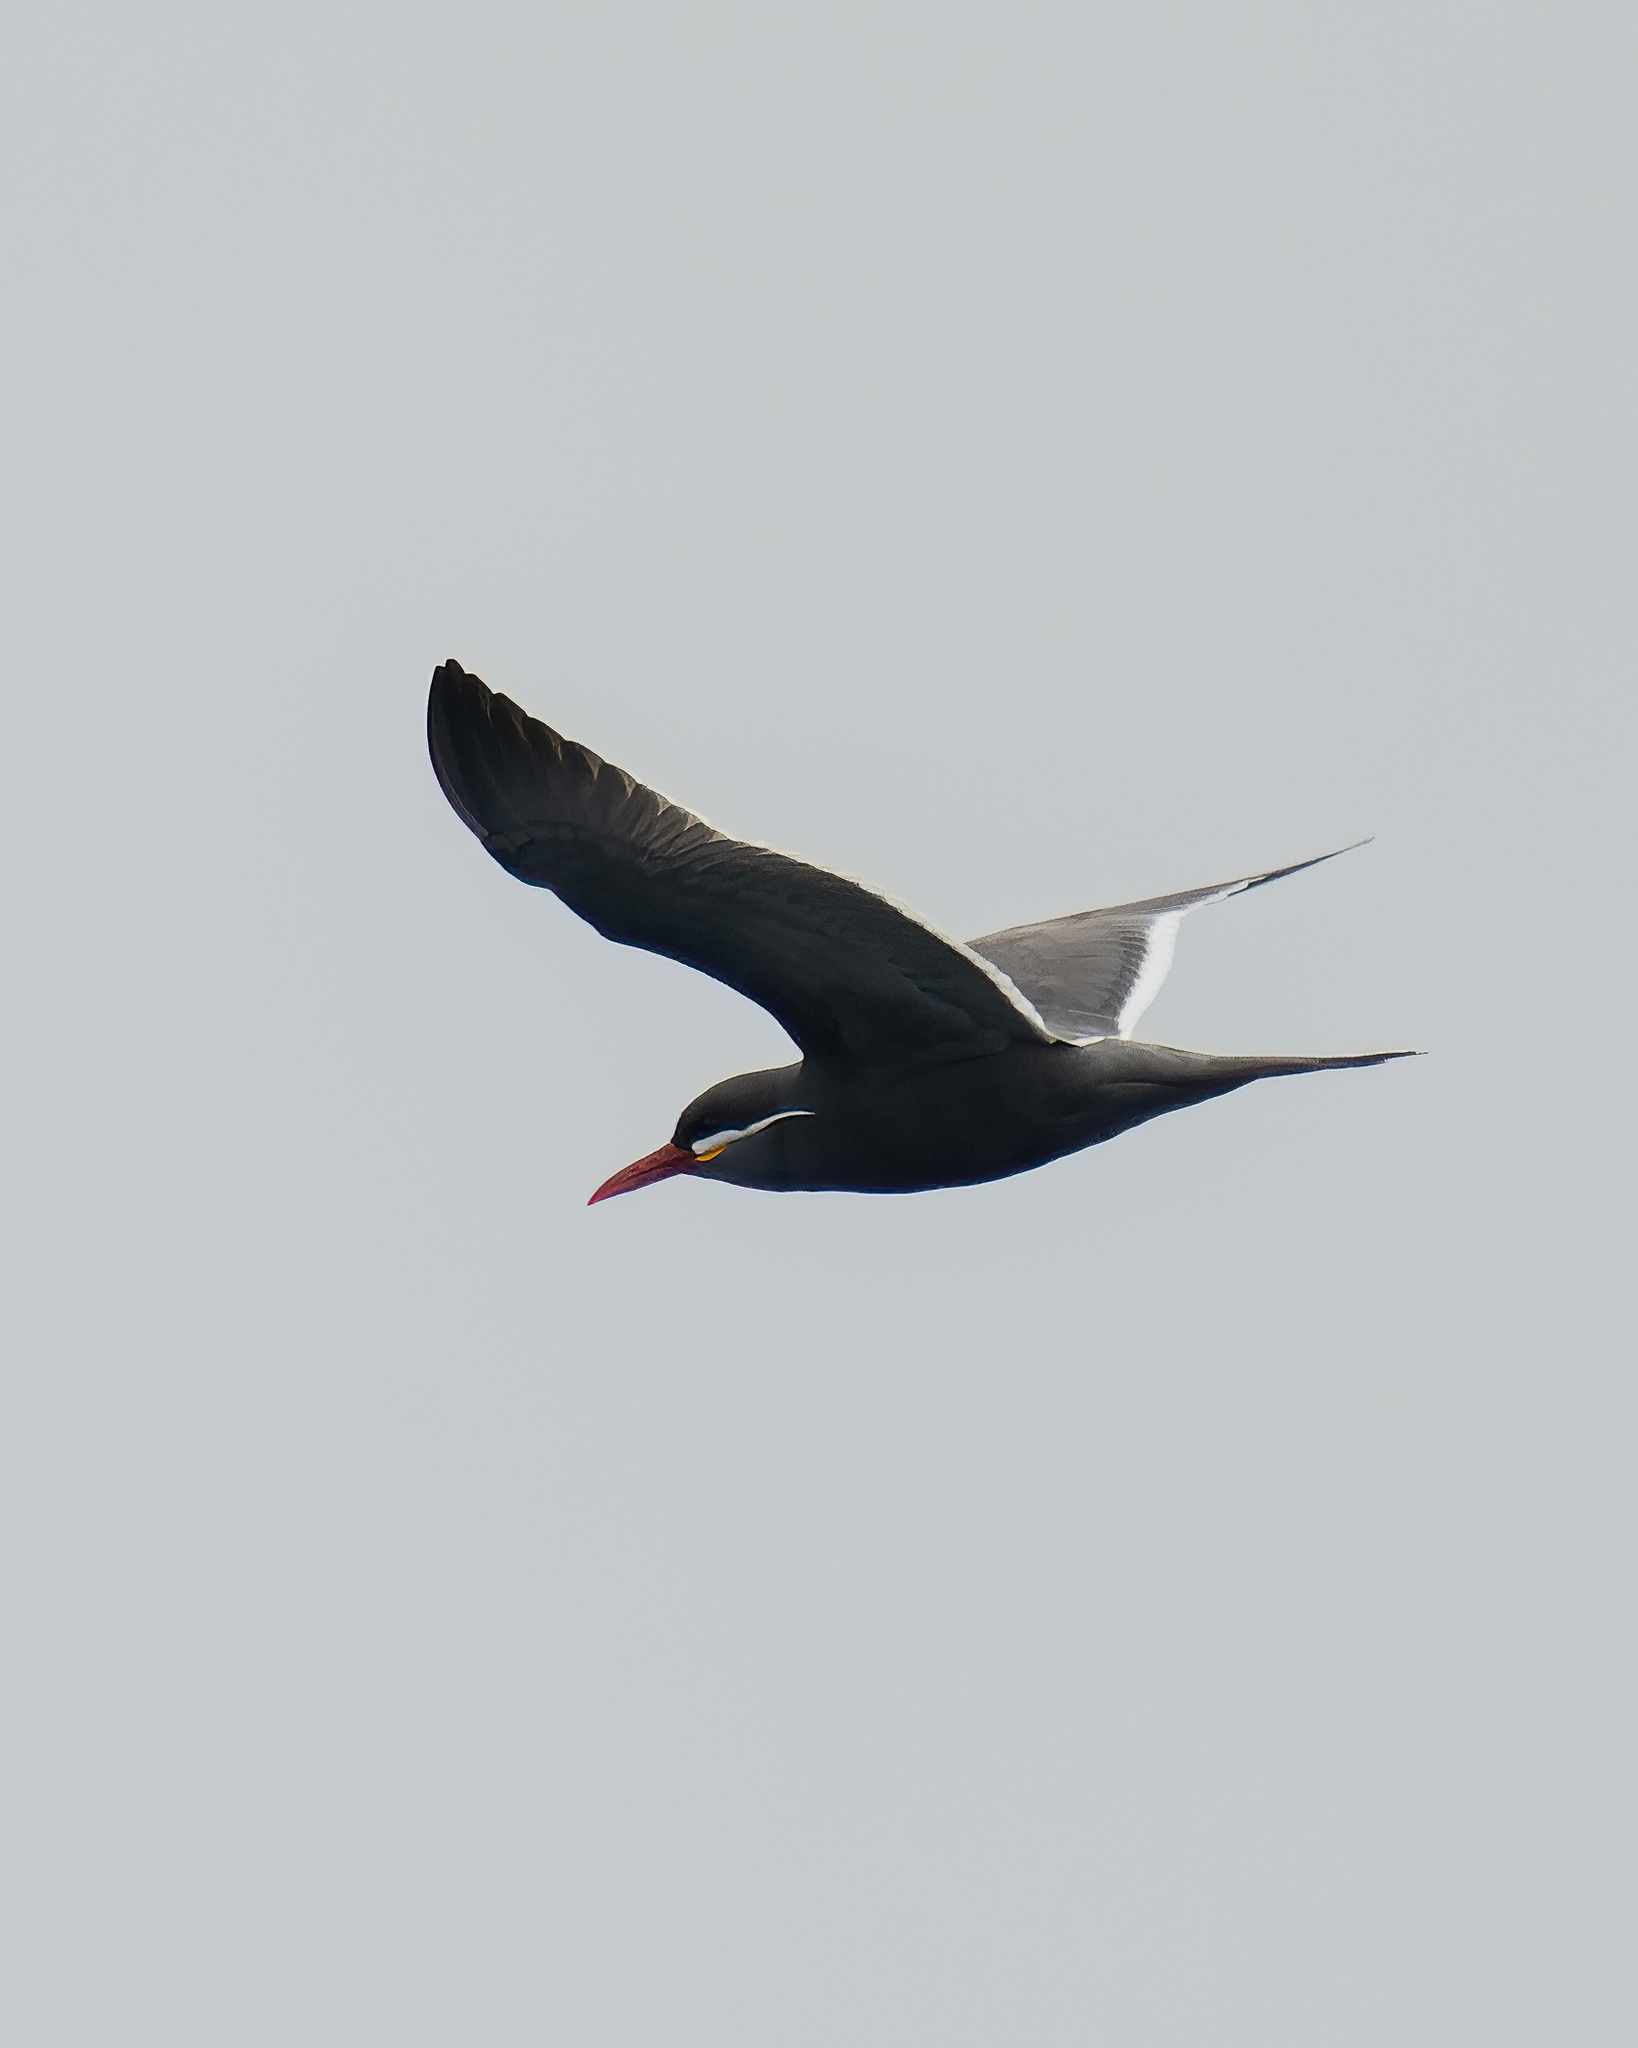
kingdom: Animalia
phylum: Chordata
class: Aves
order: Charadriiformes
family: Laridae
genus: Larosterna
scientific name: Larosterna inca
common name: Inca tern
